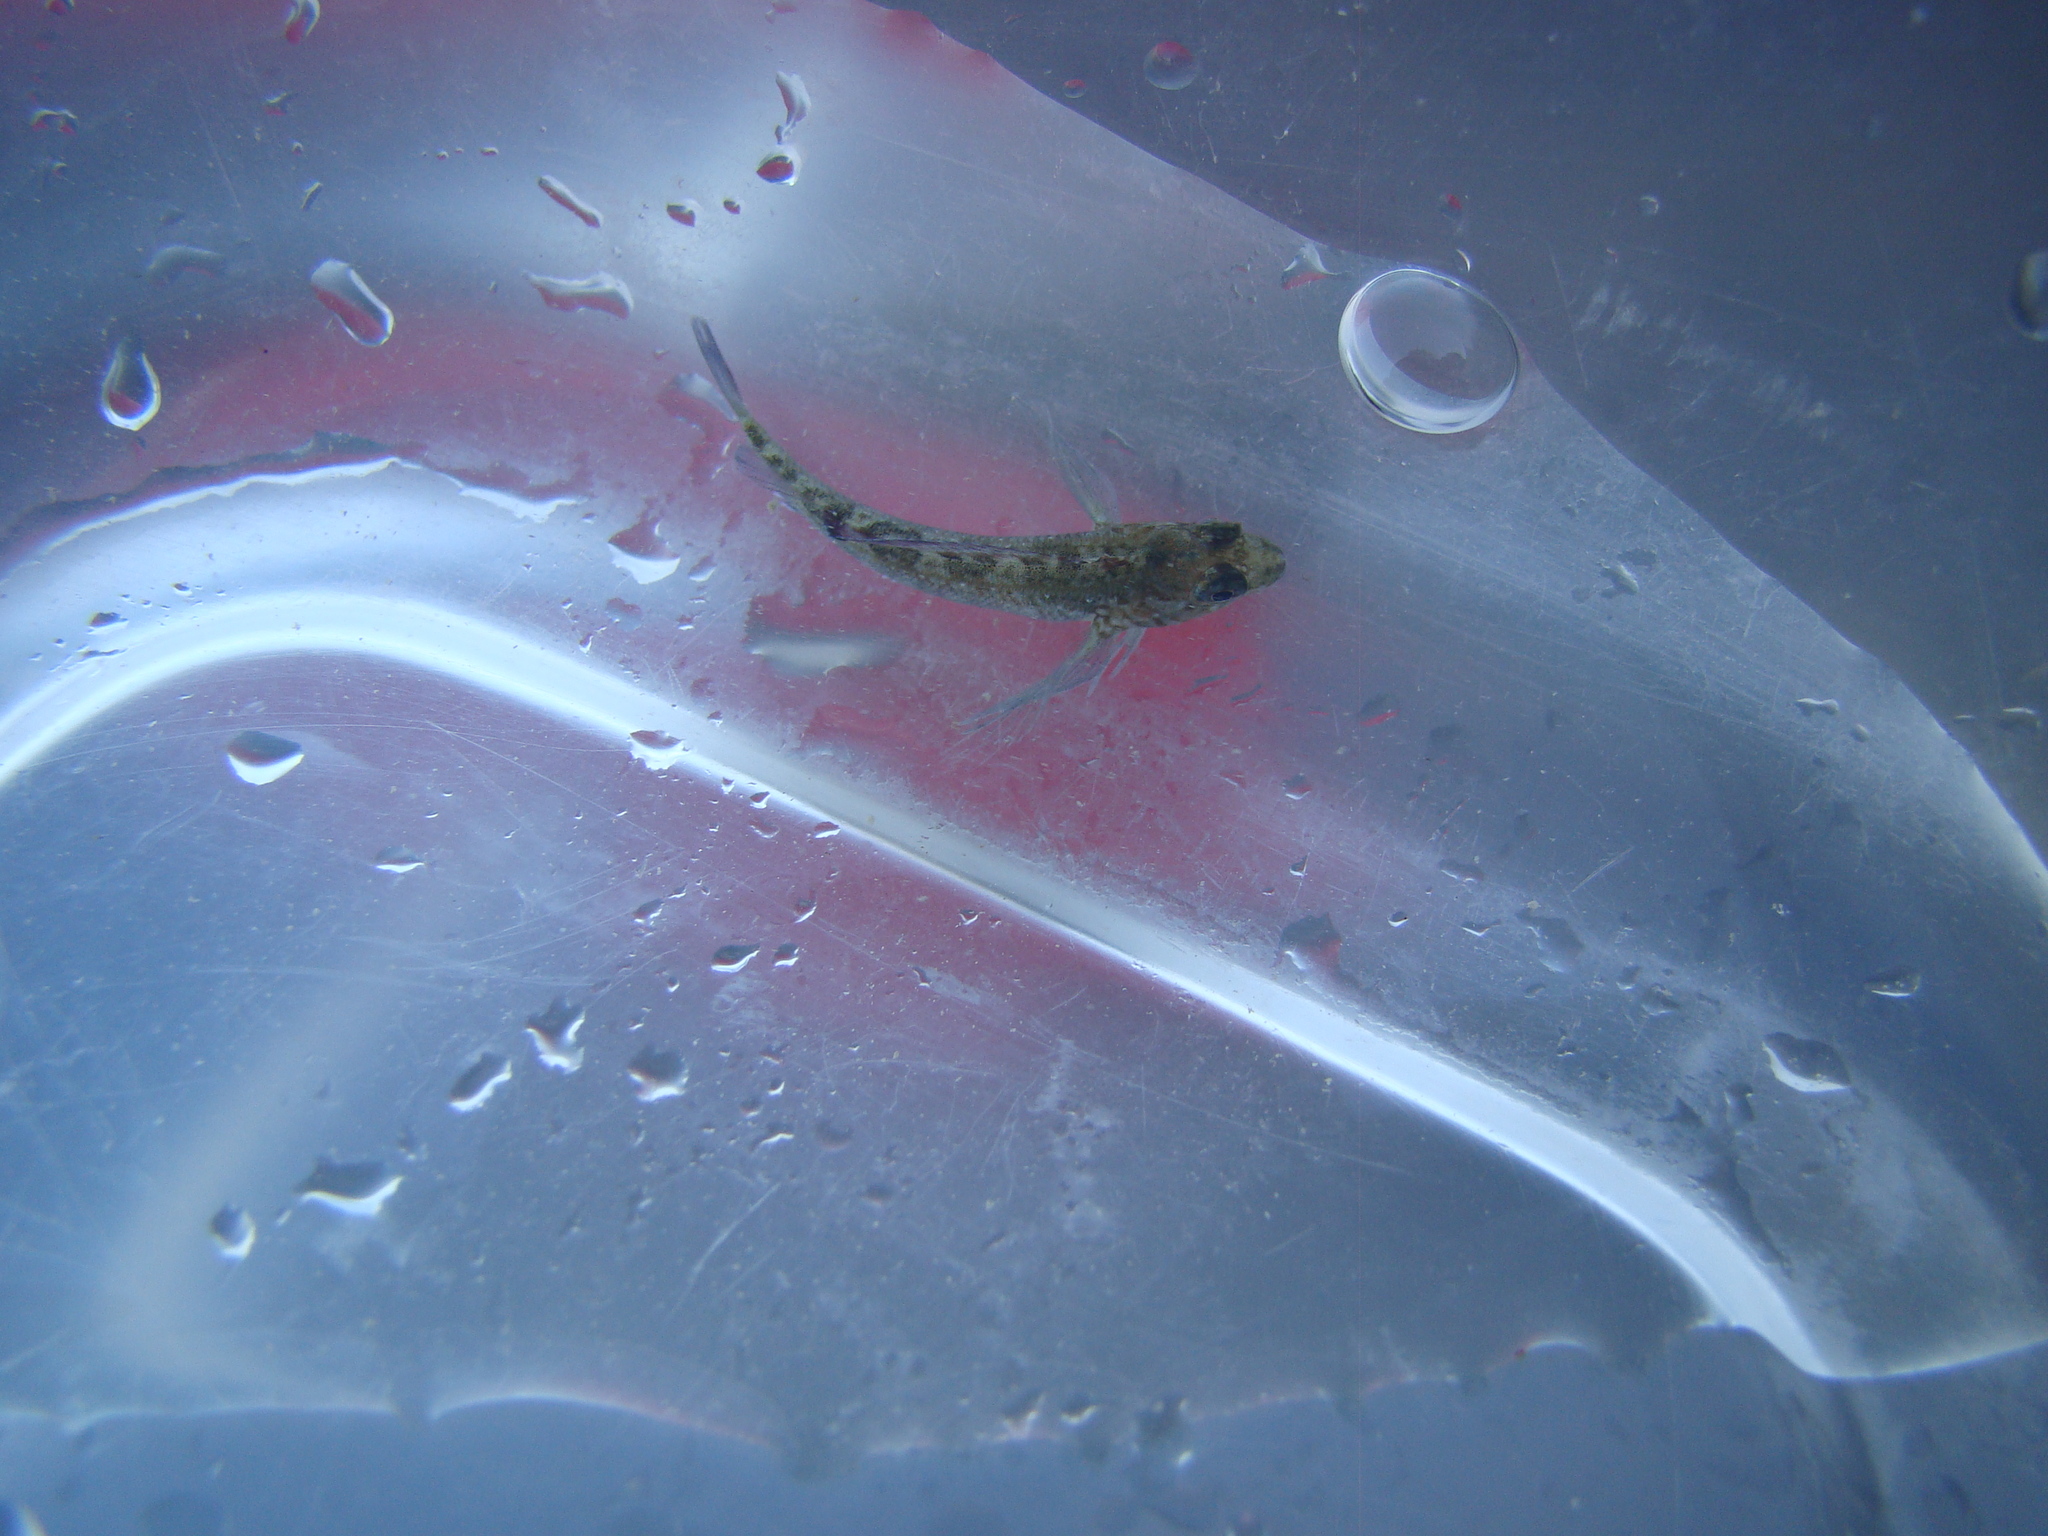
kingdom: Animalia
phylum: Chordata
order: Perciformes
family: Tripterygiidae
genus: Forsterygion
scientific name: Forsterygion varium
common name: Variable triplefin
